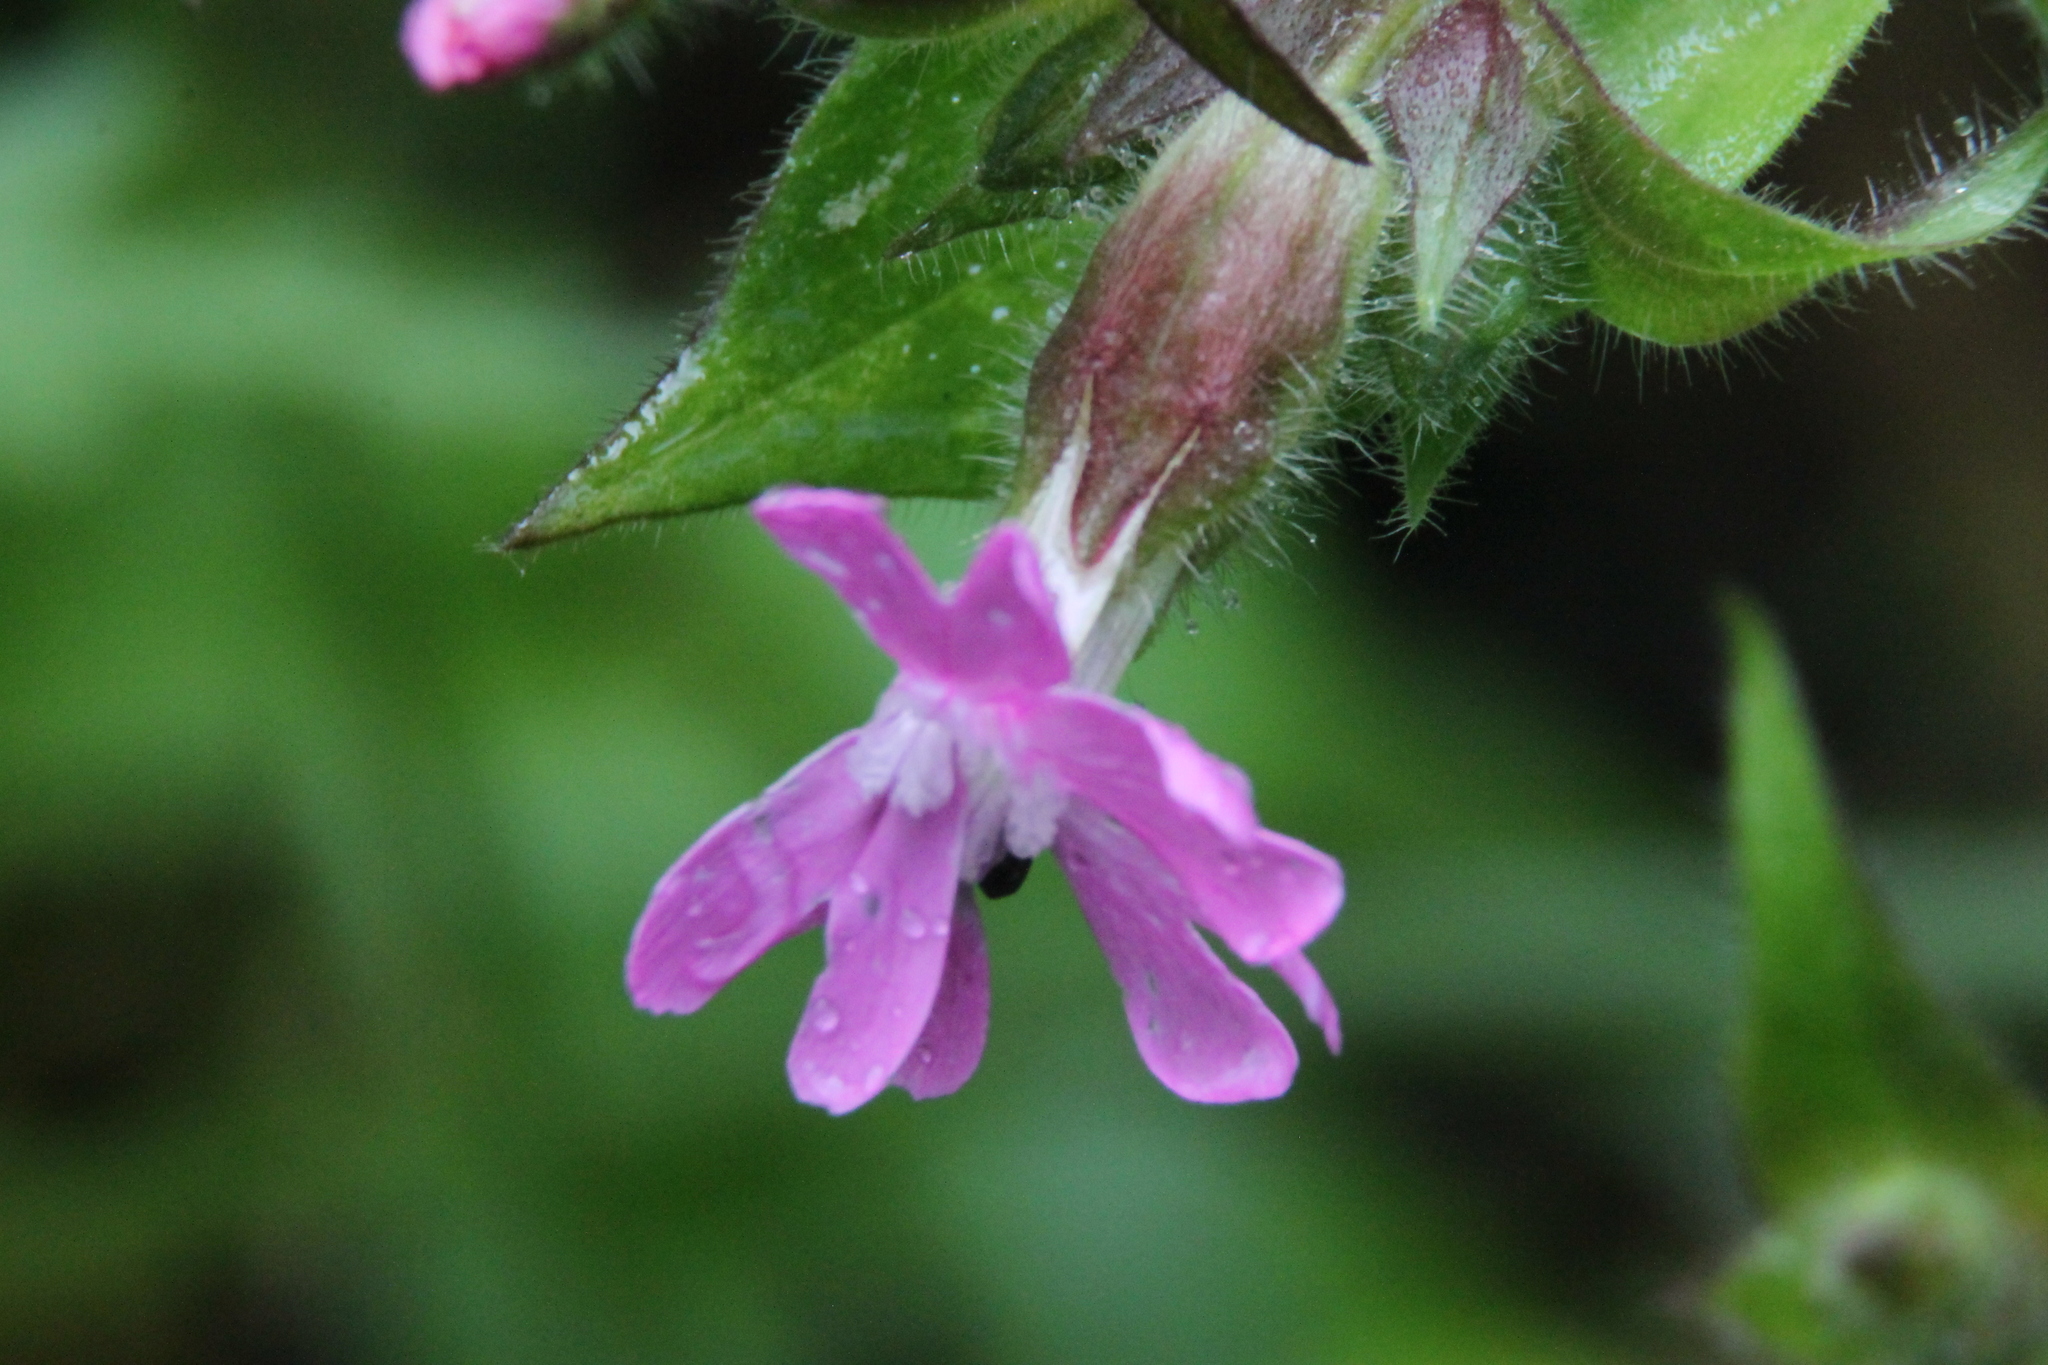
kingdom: Plantae
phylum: Tracheophyta
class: Magnoliopsida
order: Caryophyllales
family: Caryophyllaceae
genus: Silene
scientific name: Silene dioica
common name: Red campion
